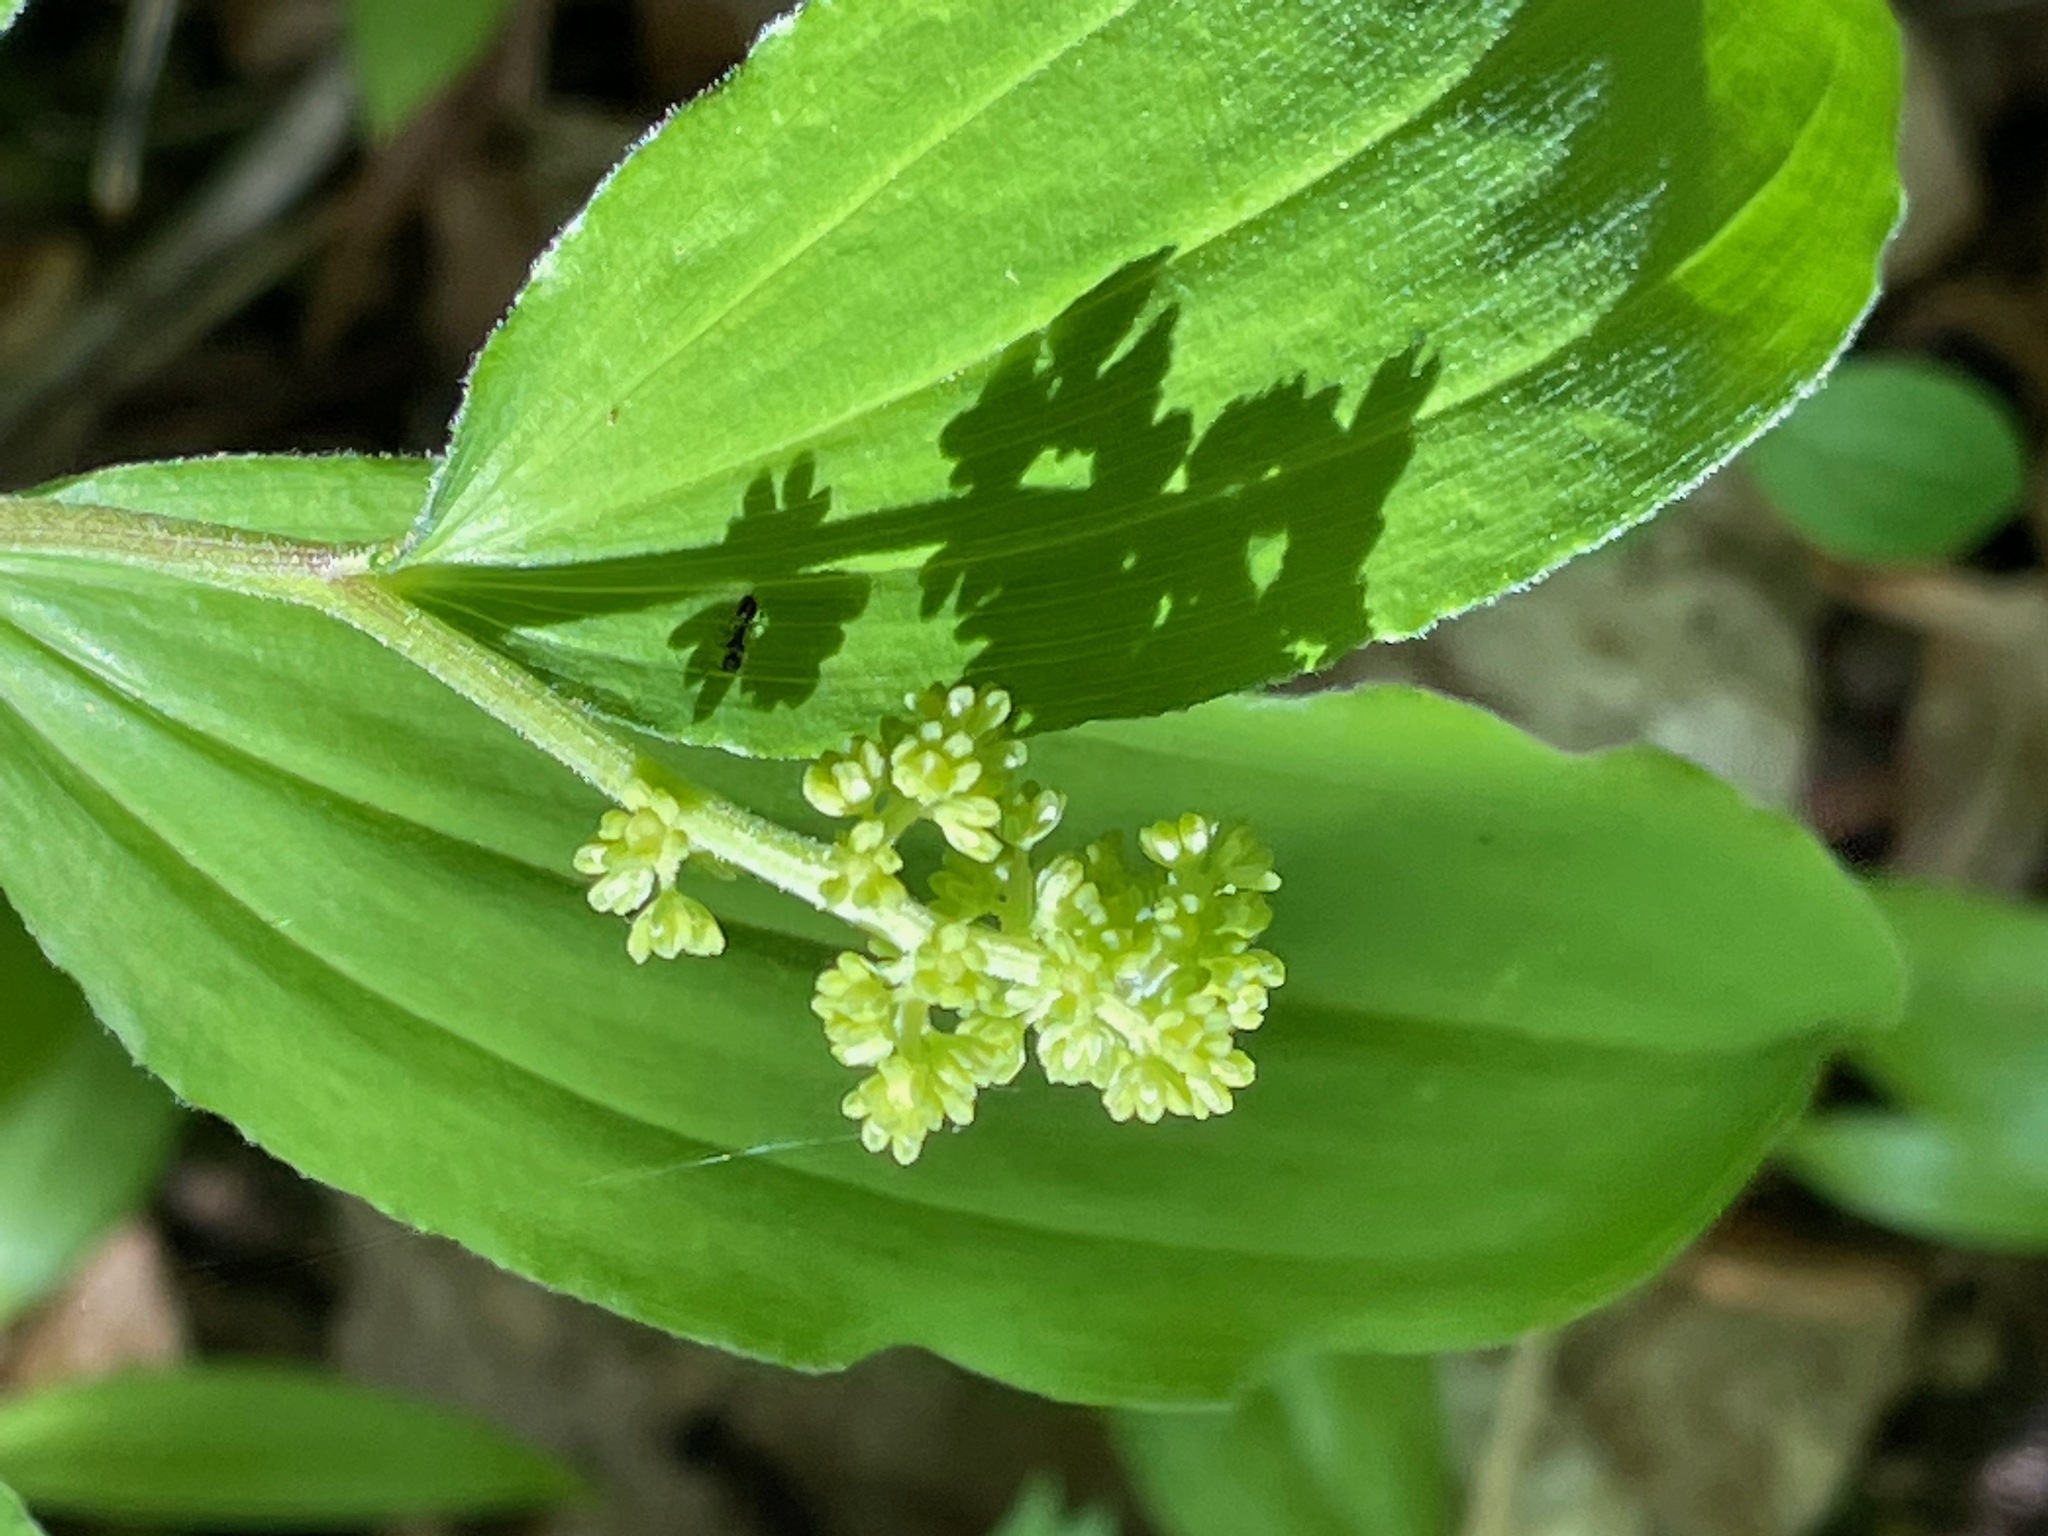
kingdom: Plantae
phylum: Tracheophyta
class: Liliopsida
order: Asparagales
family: Asparagaceae
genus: Maianthemum
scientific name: Maianthemum racemosum
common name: False spikenard
